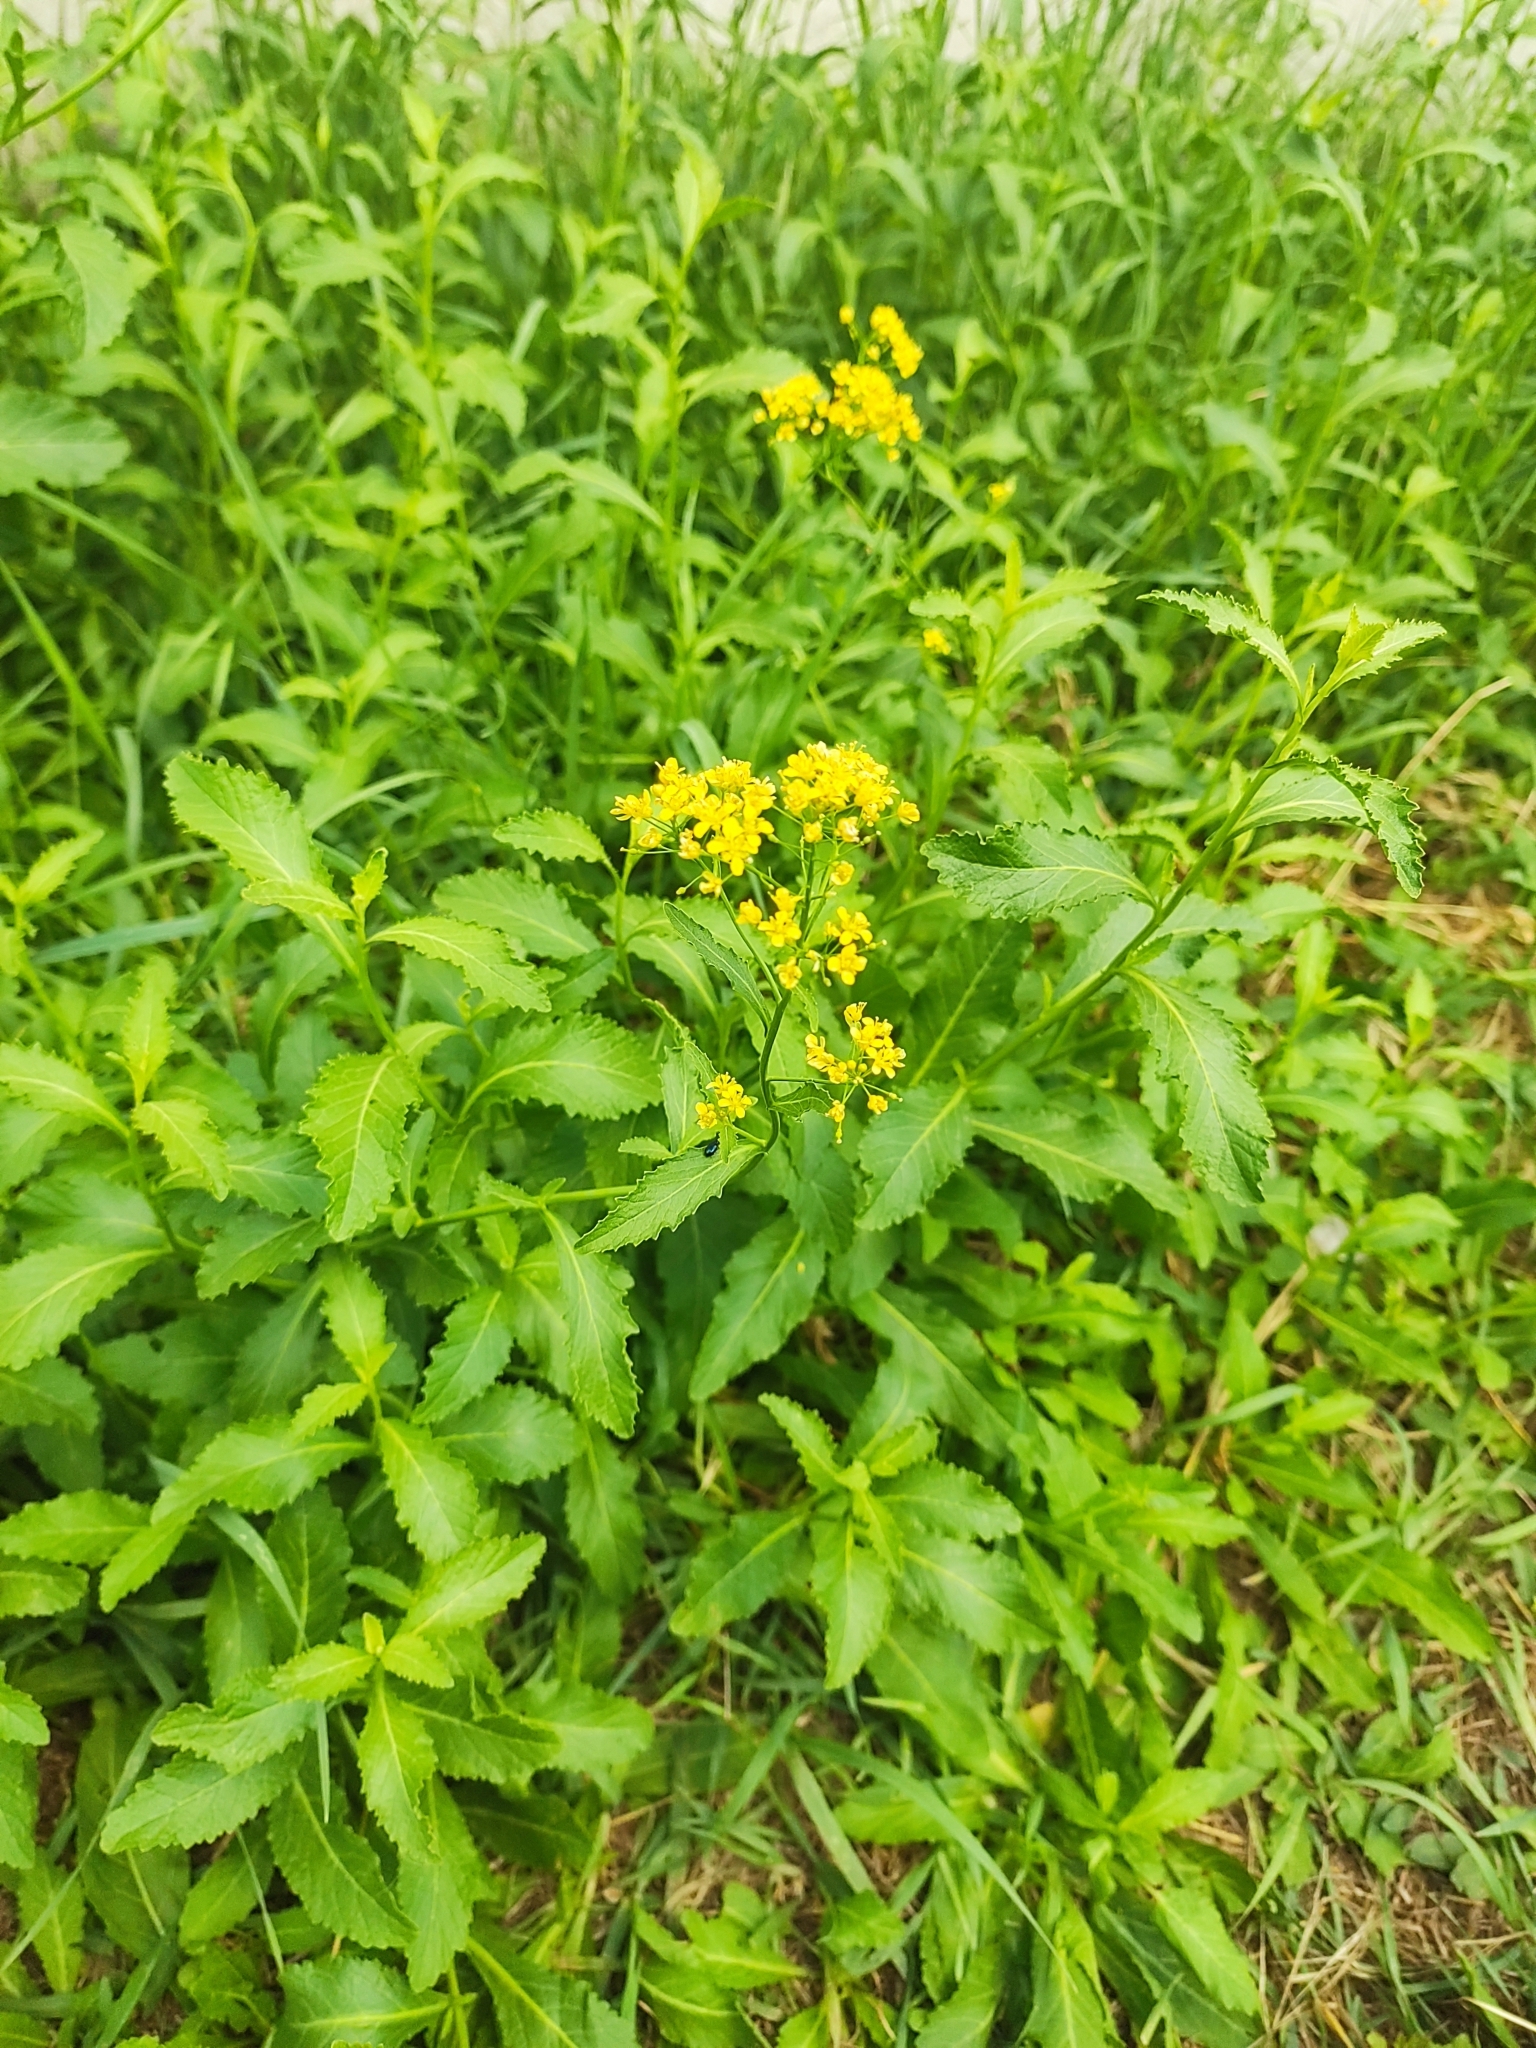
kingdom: Plantae
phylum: Tracheophyta
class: Magnoliopsida
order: Brassicales
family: Brassicaceae
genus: Rorippa
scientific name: Rorippa austriaca
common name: Austrian yellow-cress
